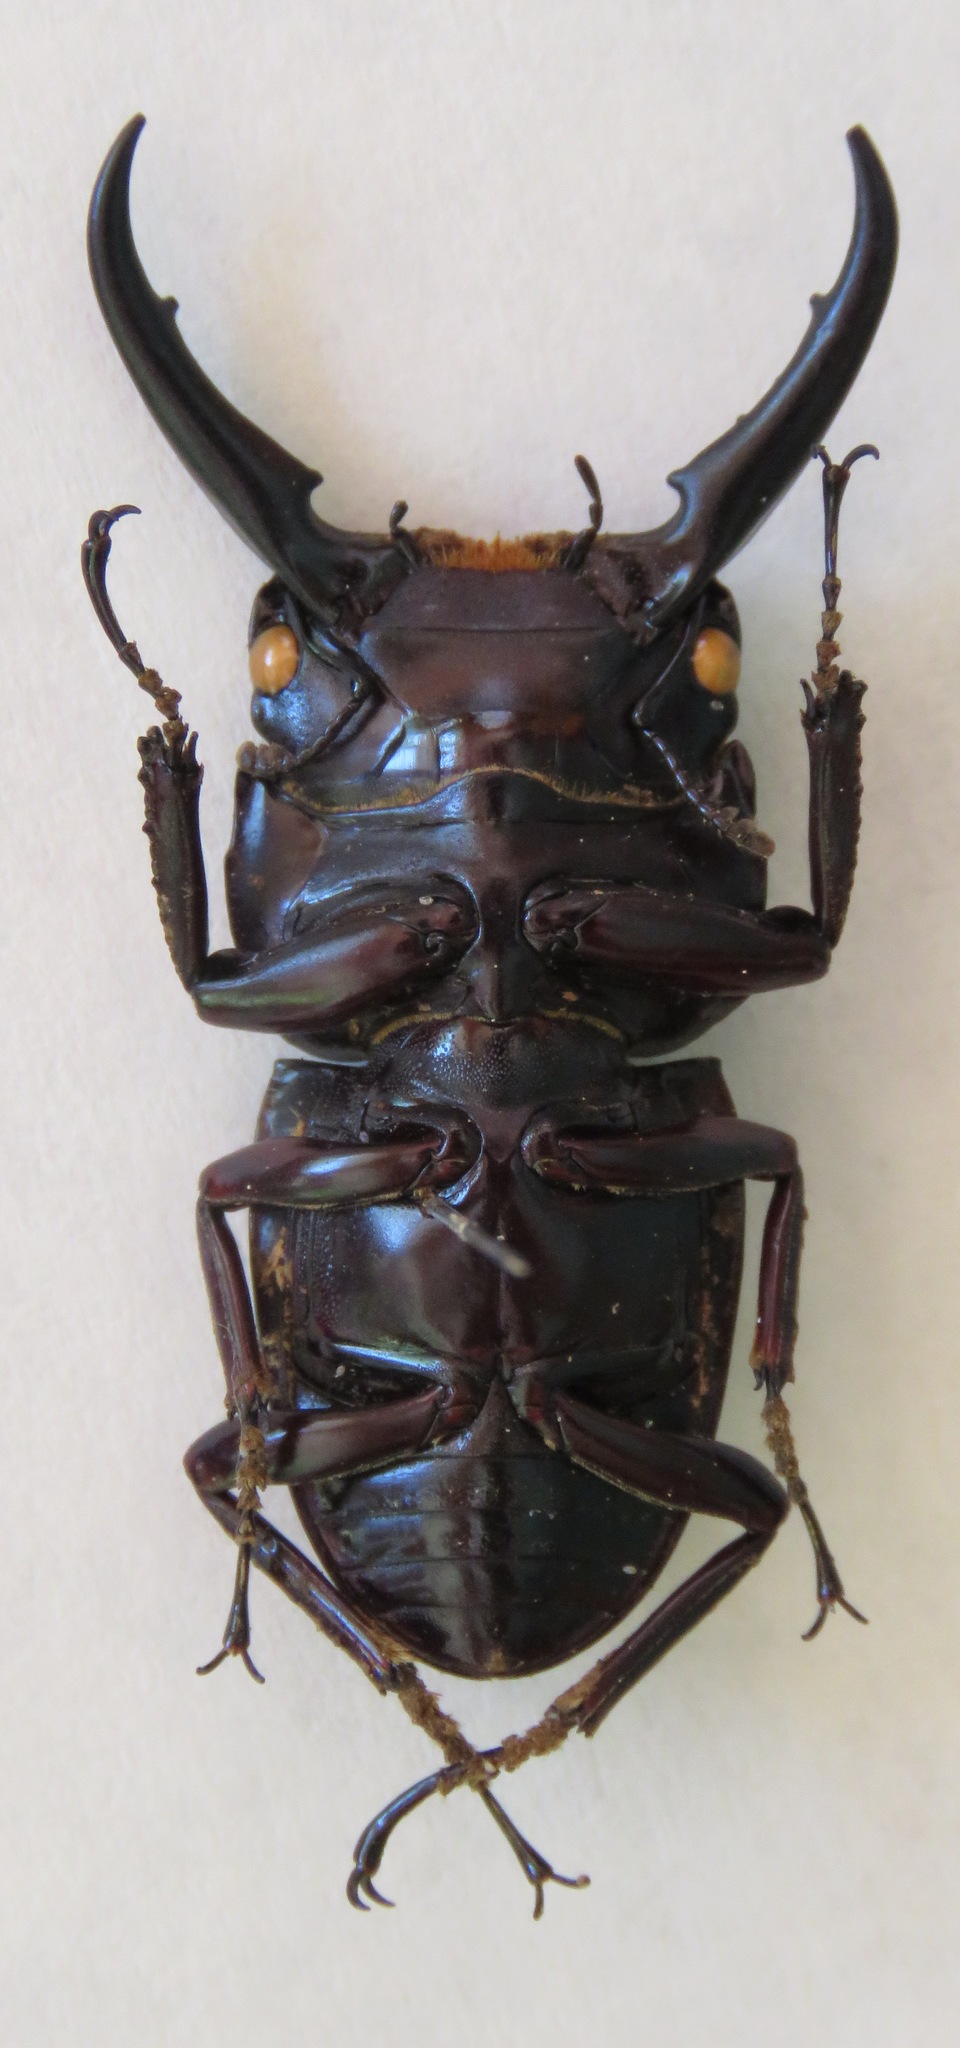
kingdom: Animalia
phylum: Arthropoda
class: Insecta
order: Coleoptera
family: Lucanidae
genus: Dorcus
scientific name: Dorcus ternatensis
